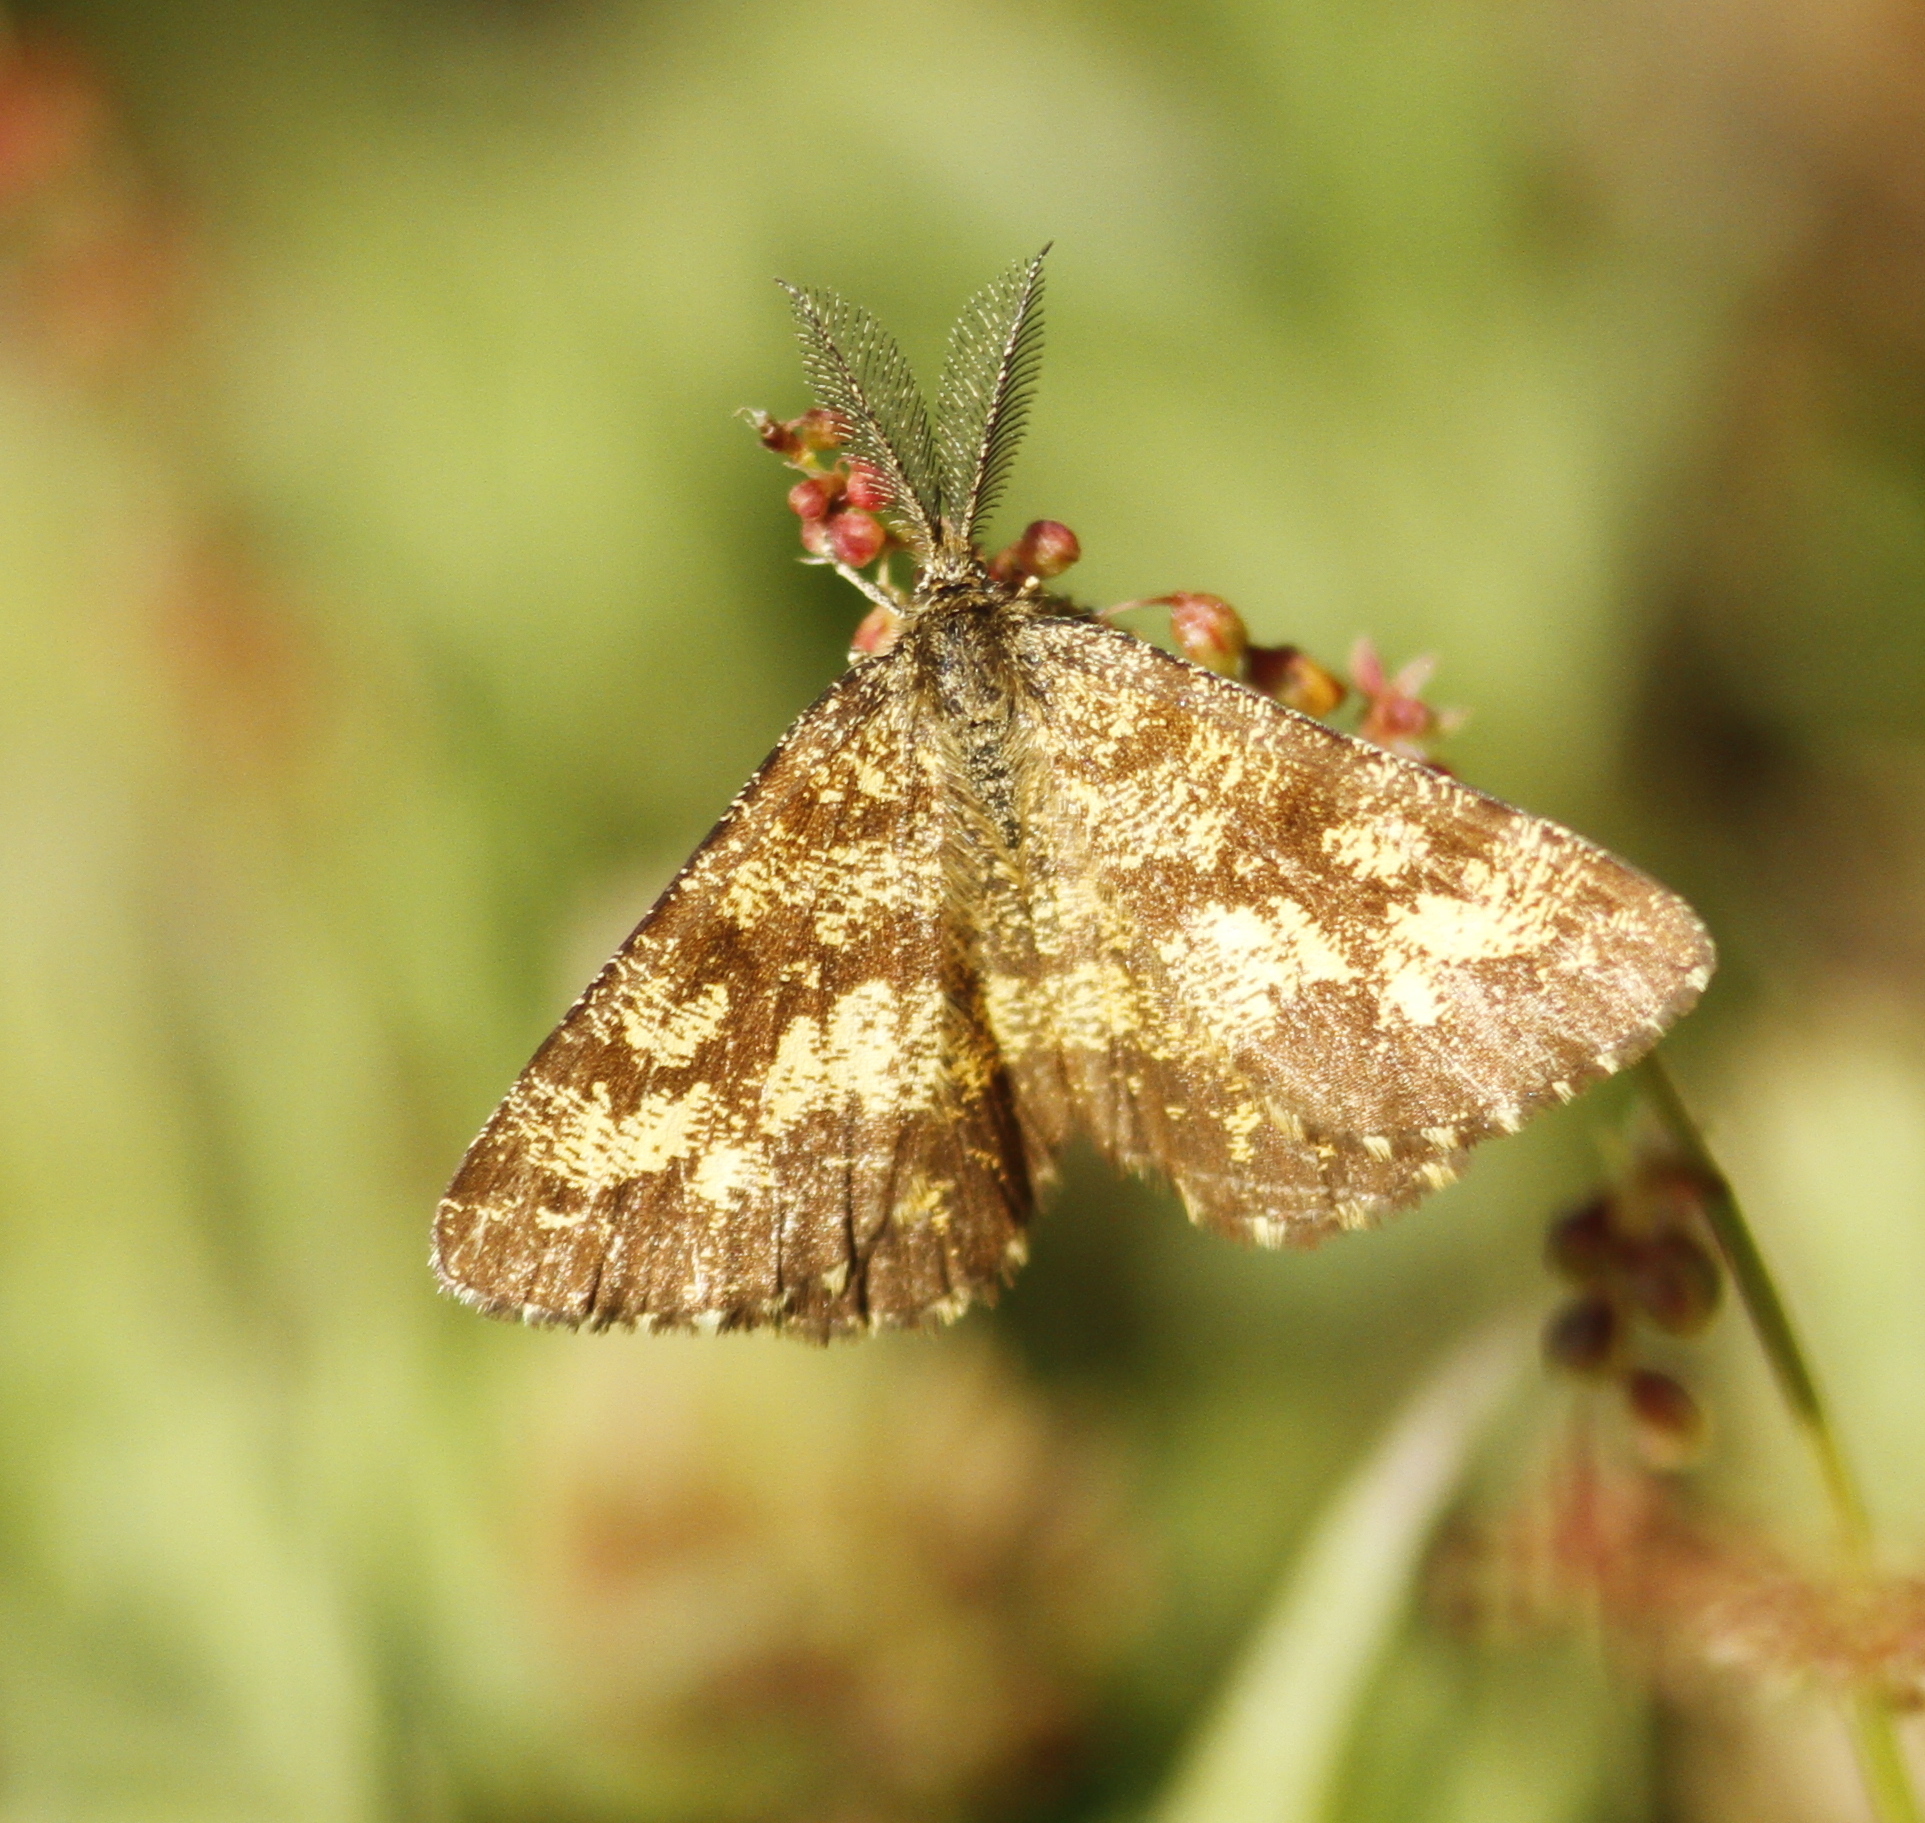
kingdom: Animalia
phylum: Arthropoda
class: Insecta
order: Lepidoptera
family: Geometridae
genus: Ematurga
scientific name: Ematurga atomaria
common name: Common heath
